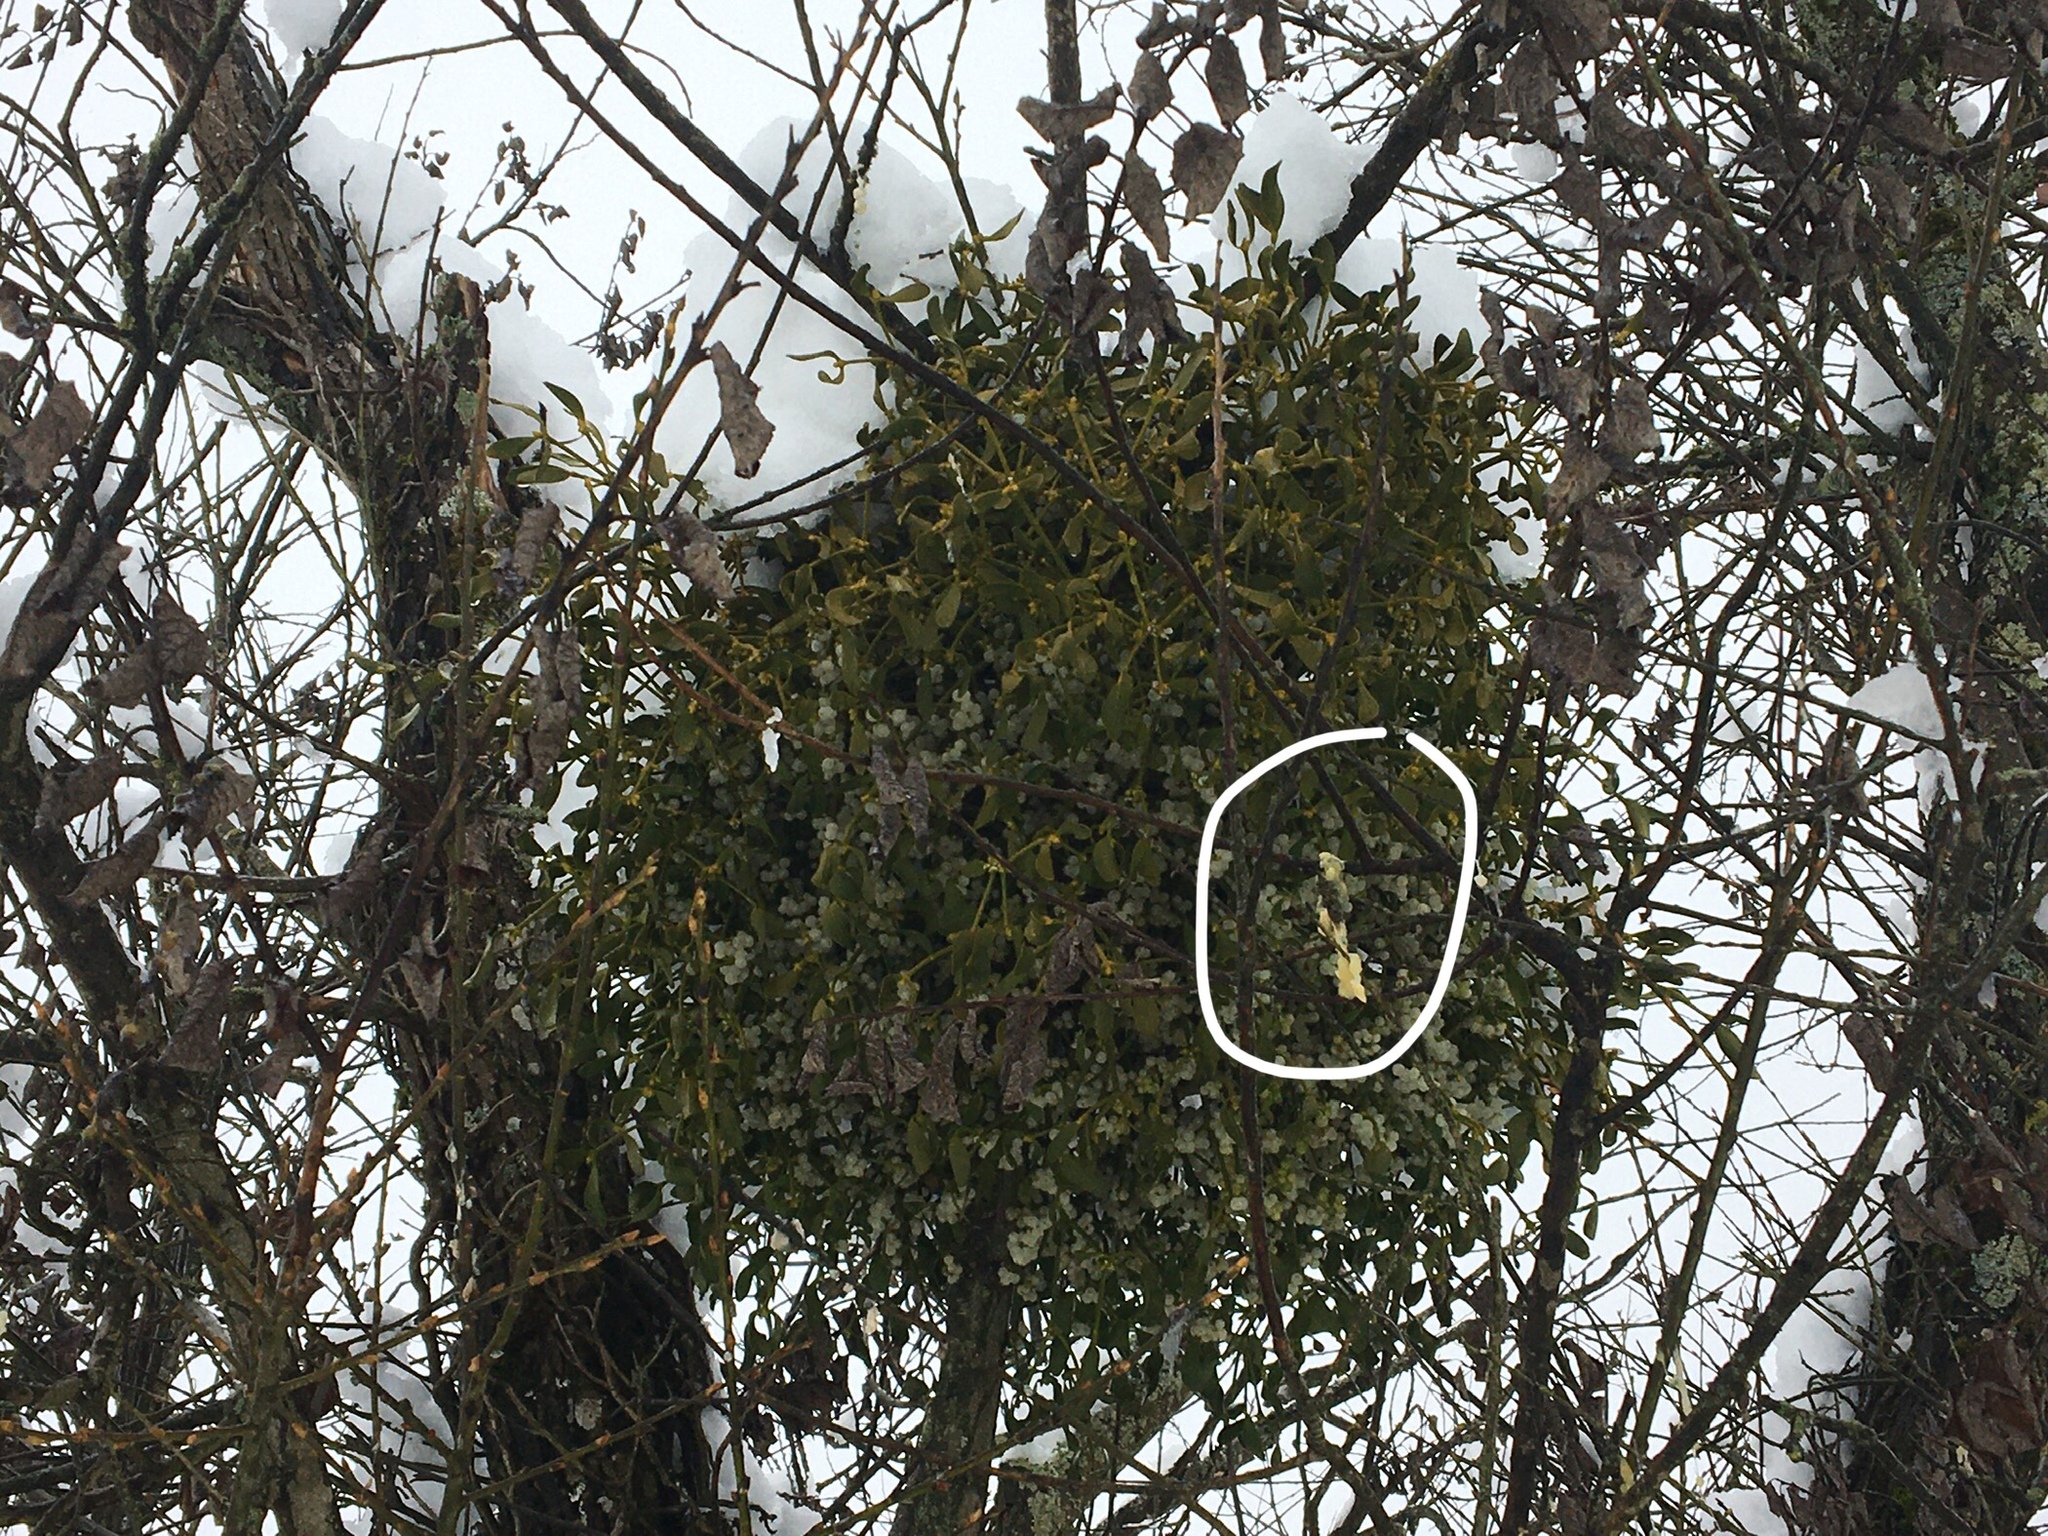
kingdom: Plantae
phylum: Tracheophyta
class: Magnoliopsida
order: Santalales
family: Viscaceae
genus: Viscum
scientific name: Viscum album
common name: Mistletoe
